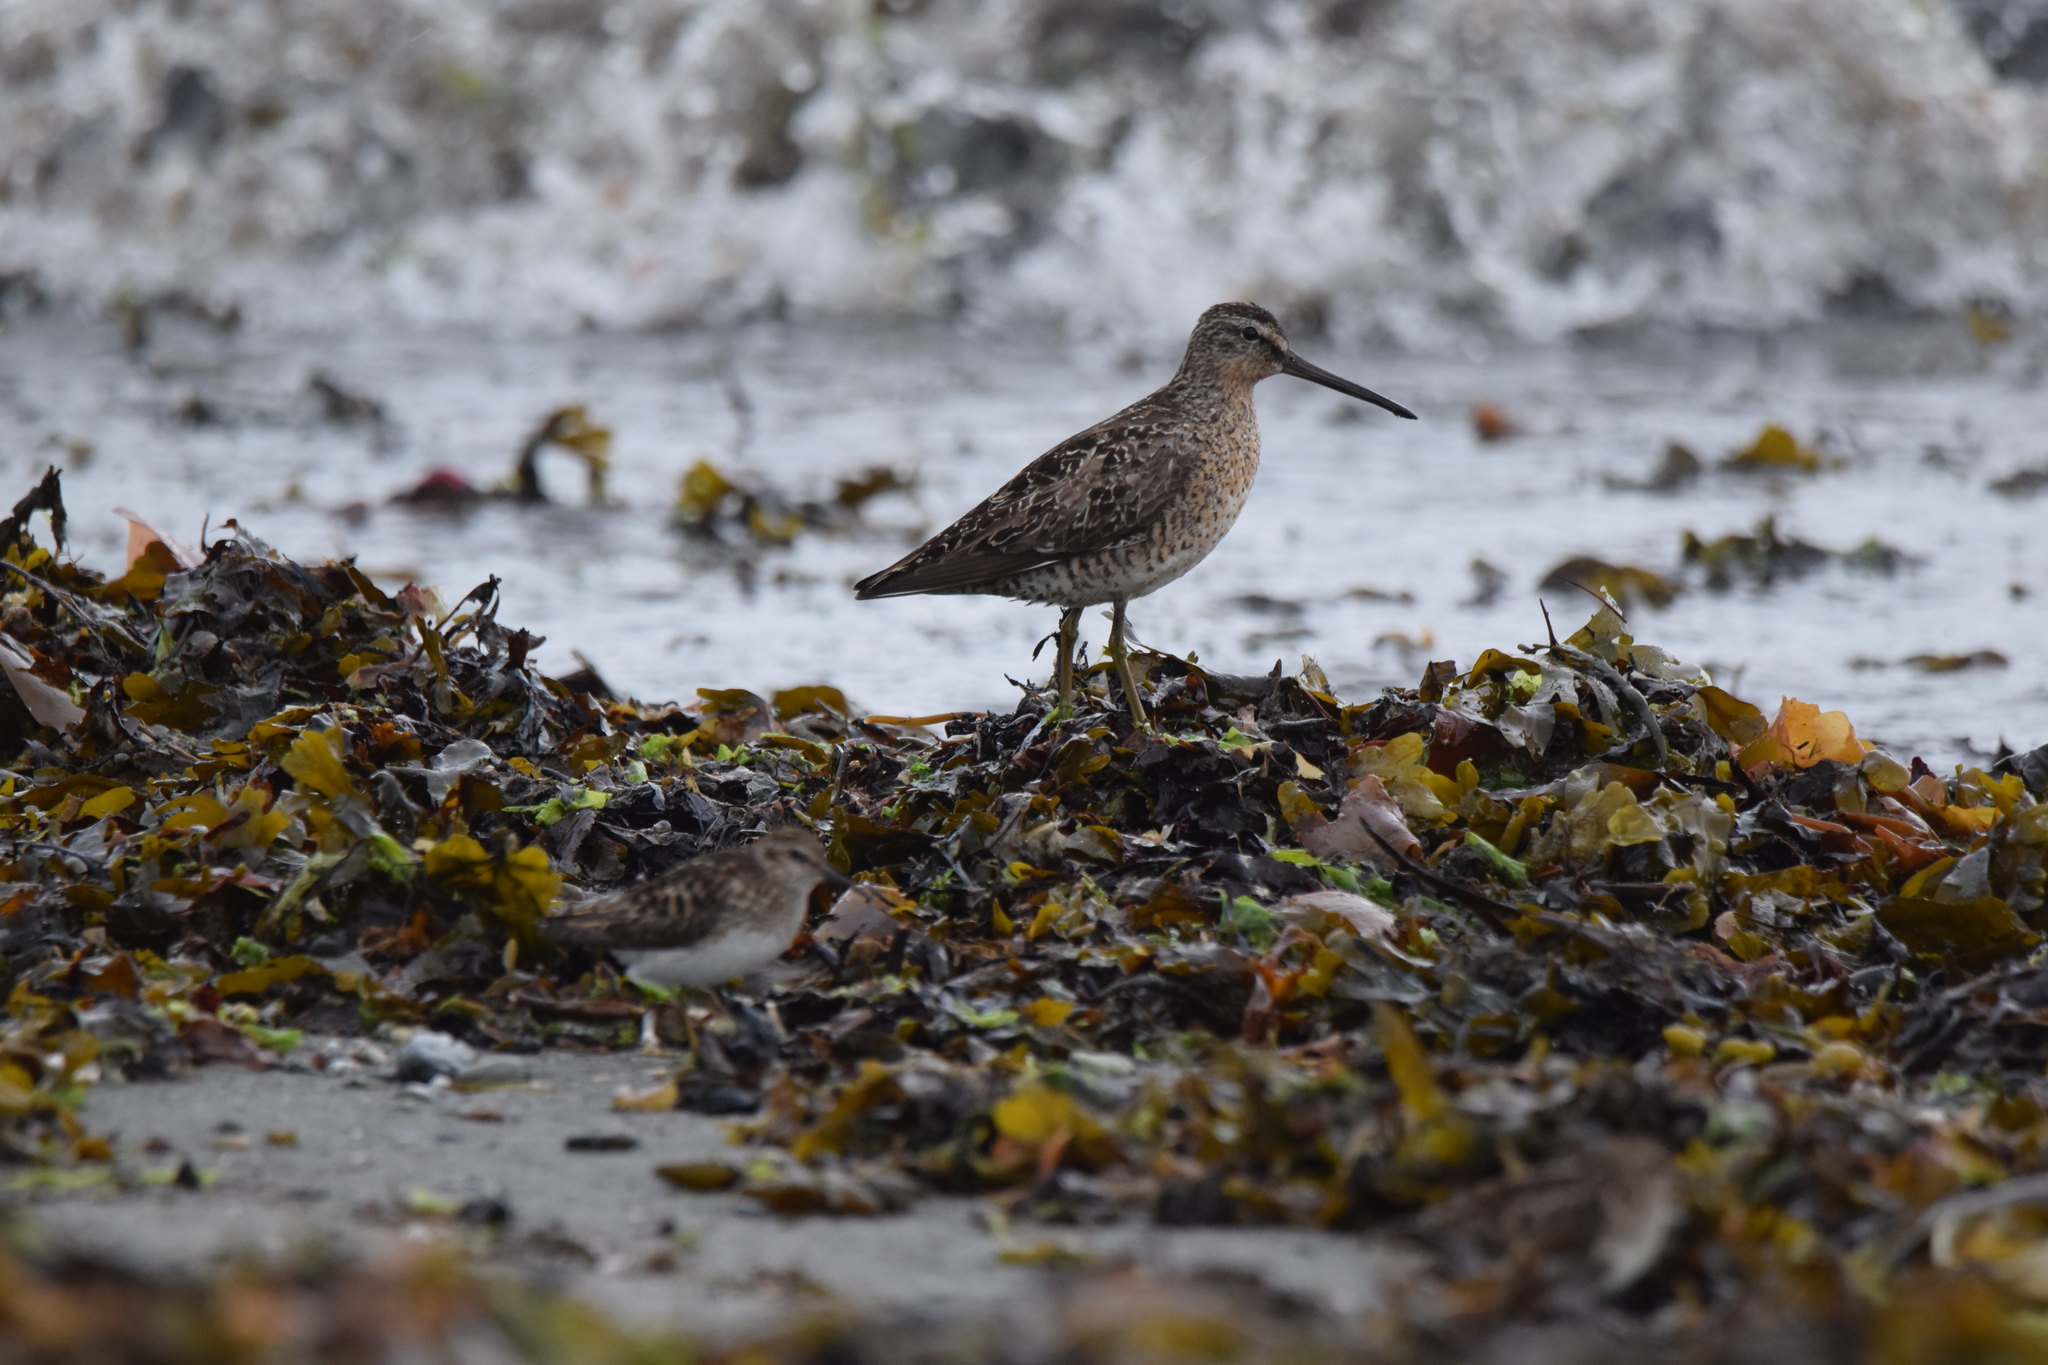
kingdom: Animalia
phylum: Chordata
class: Aves
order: Charadriiformes
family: Scolopacidae
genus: Limnodromus
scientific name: Limnodromus griseus
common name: Short-billed dowitcher
